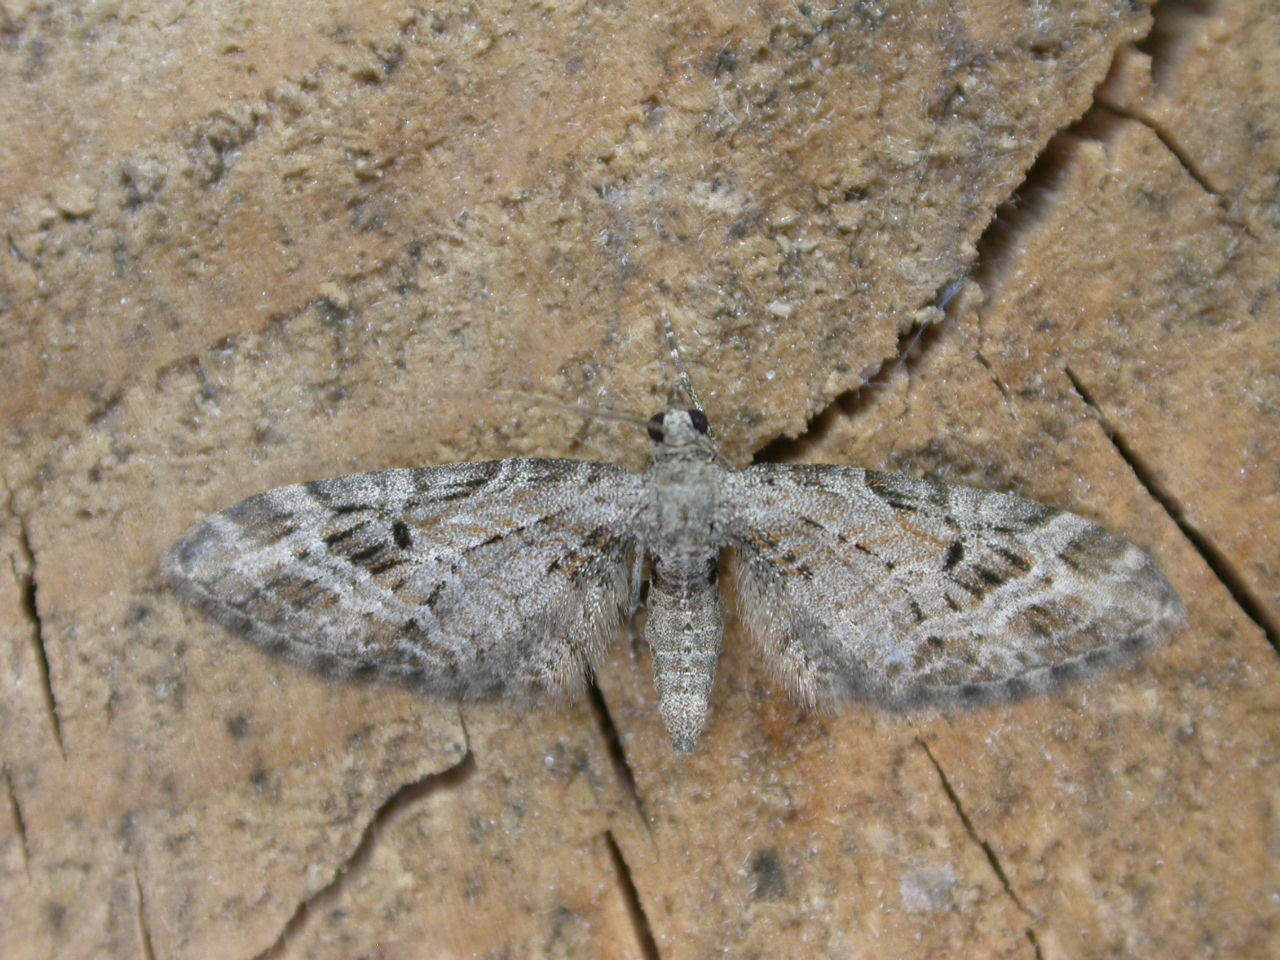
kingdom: Animalia
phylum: Arthropoda
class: Insecta
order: Lepidoptera
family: Geometridae
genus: Eupithecia
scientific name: Eupithecia exiguata
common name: Mottled pug
